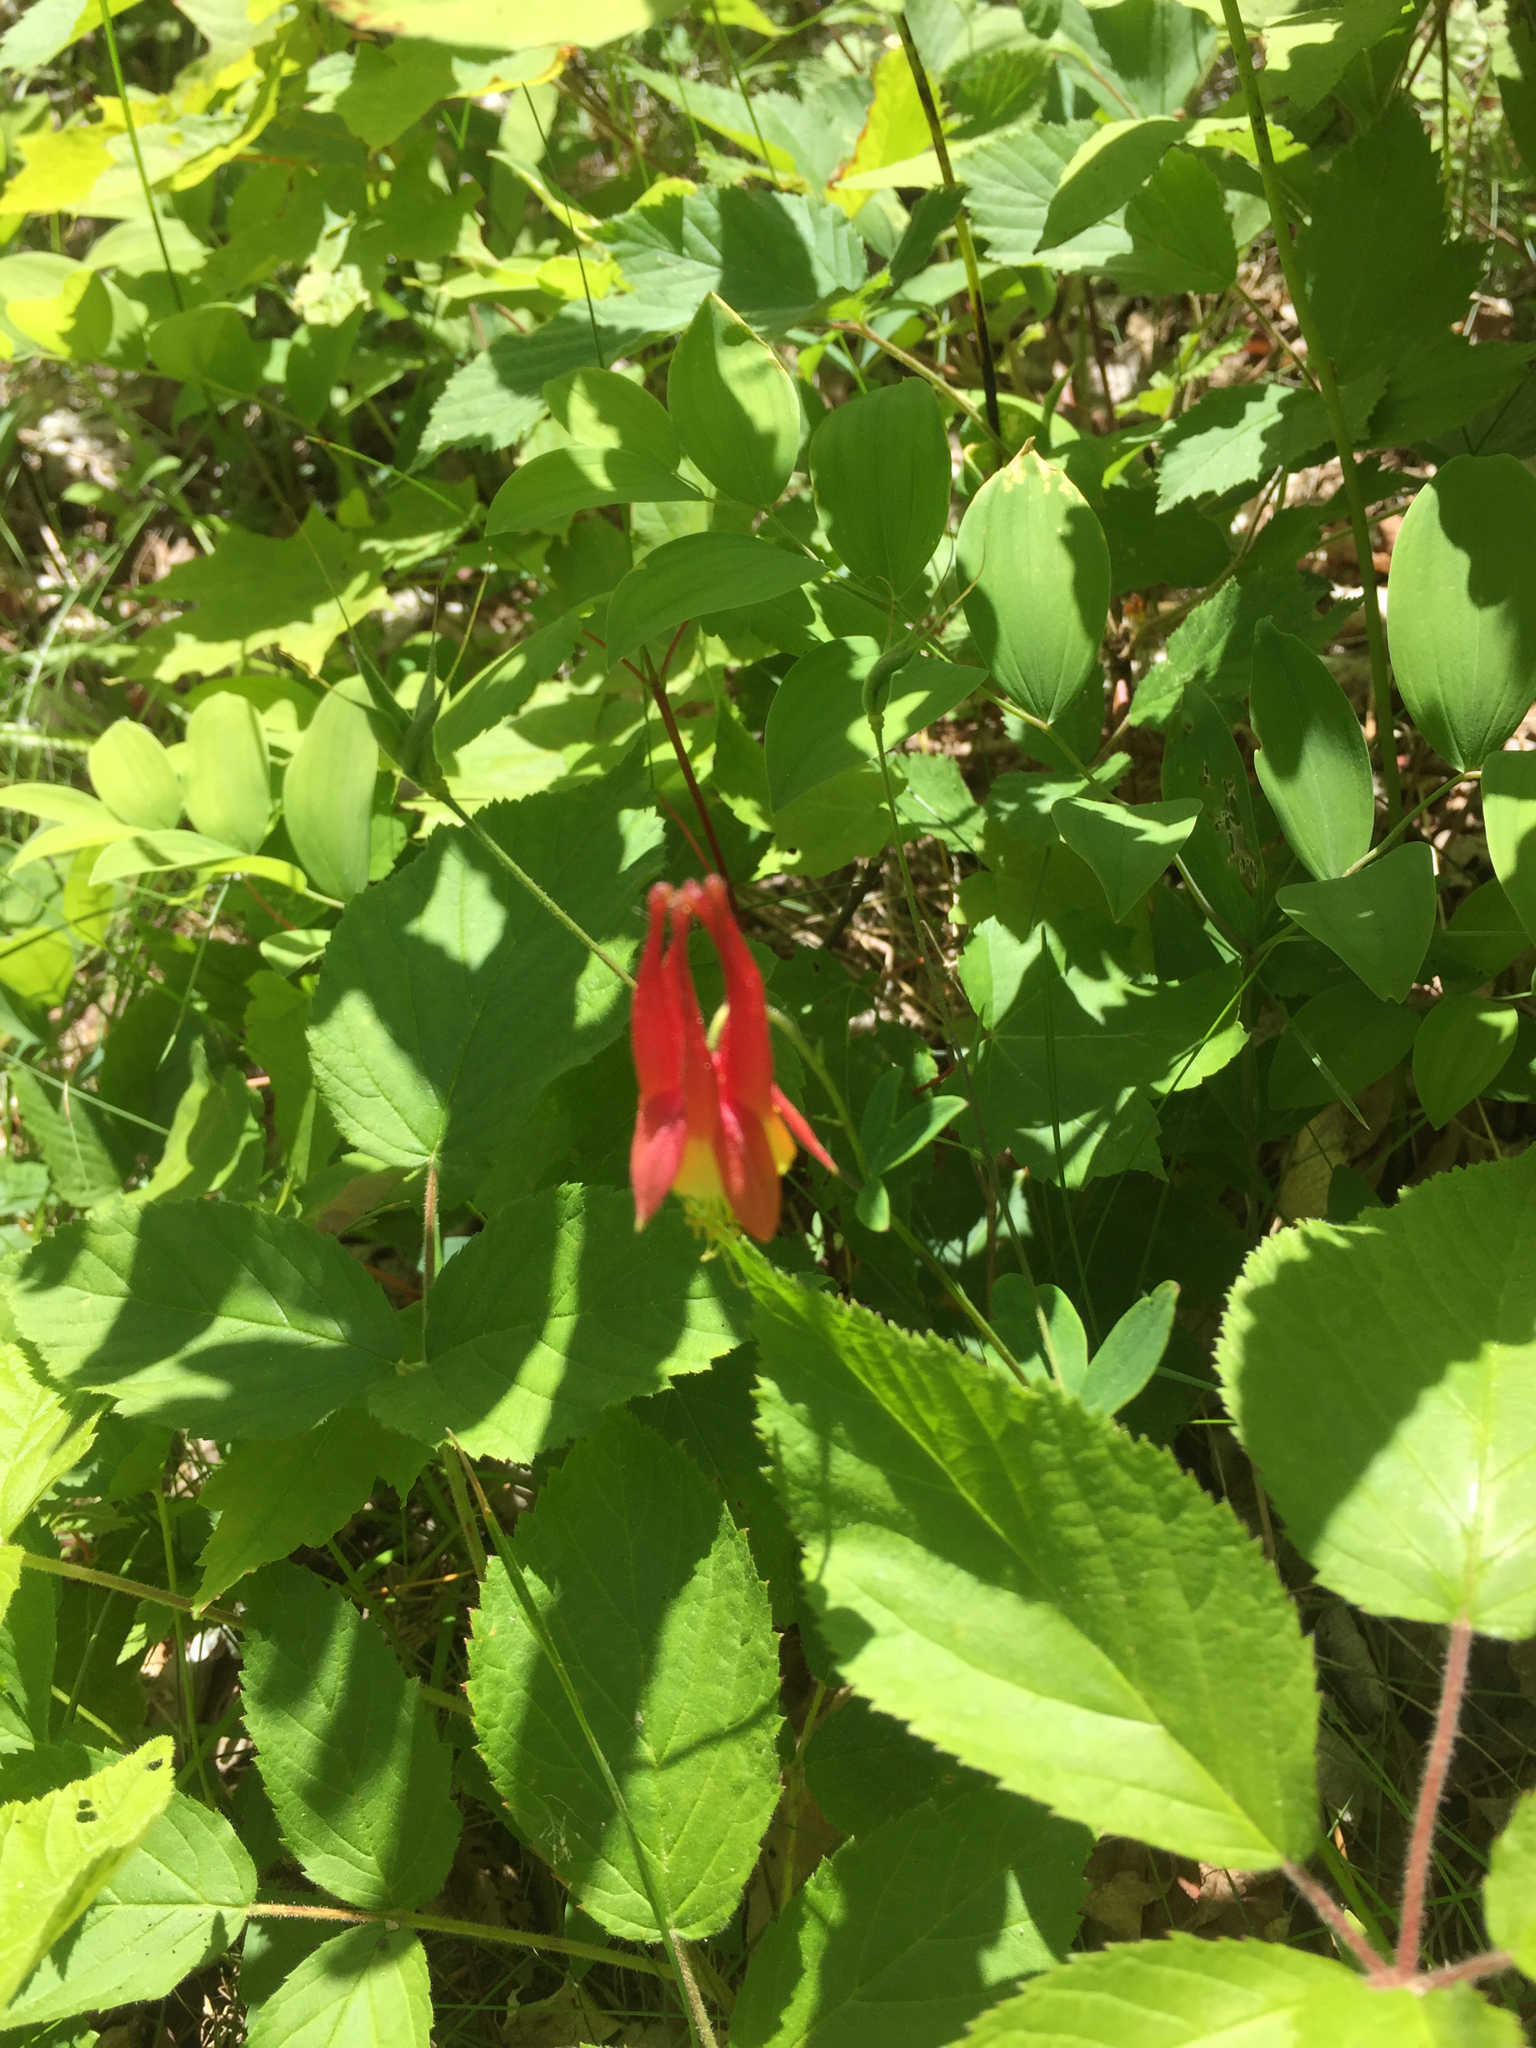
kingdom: Plantae
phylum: Tracheophyta
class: Magnoliopsida
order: Ranunculales
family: Ranunculaceae
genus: Aquilegia
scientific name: Aquilegia canadensis
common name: American columbine
